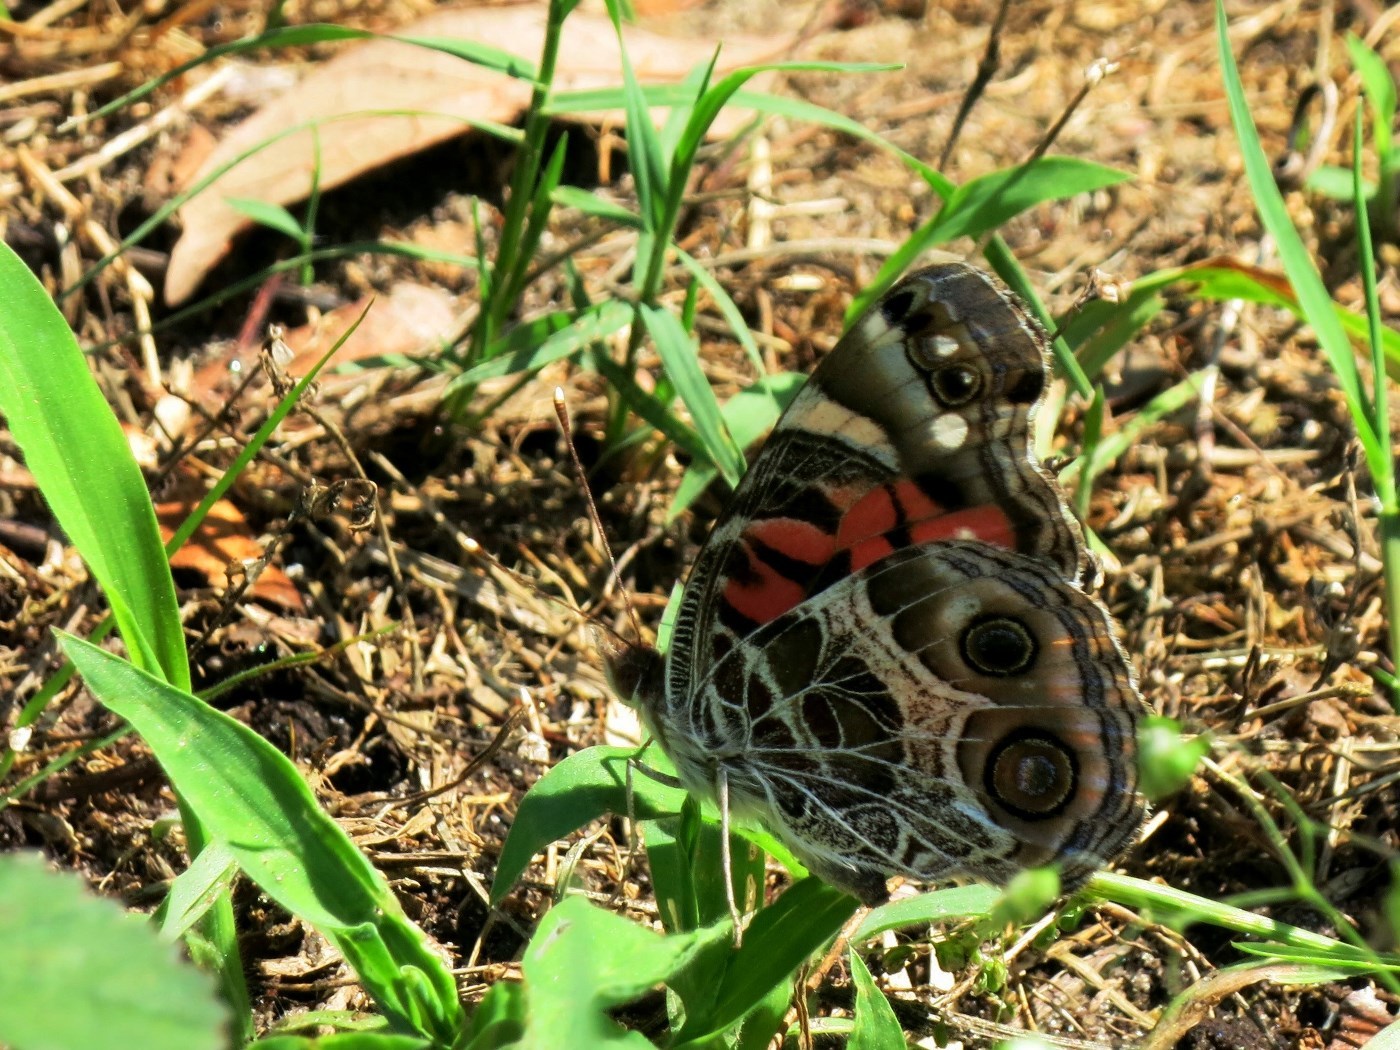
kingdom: Animalia
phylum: Arthropoda
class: Insecta
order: Lepidoptera
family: Nymphalidae
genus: Vanessa
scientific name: Vanessa virginiensis
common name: American lady
